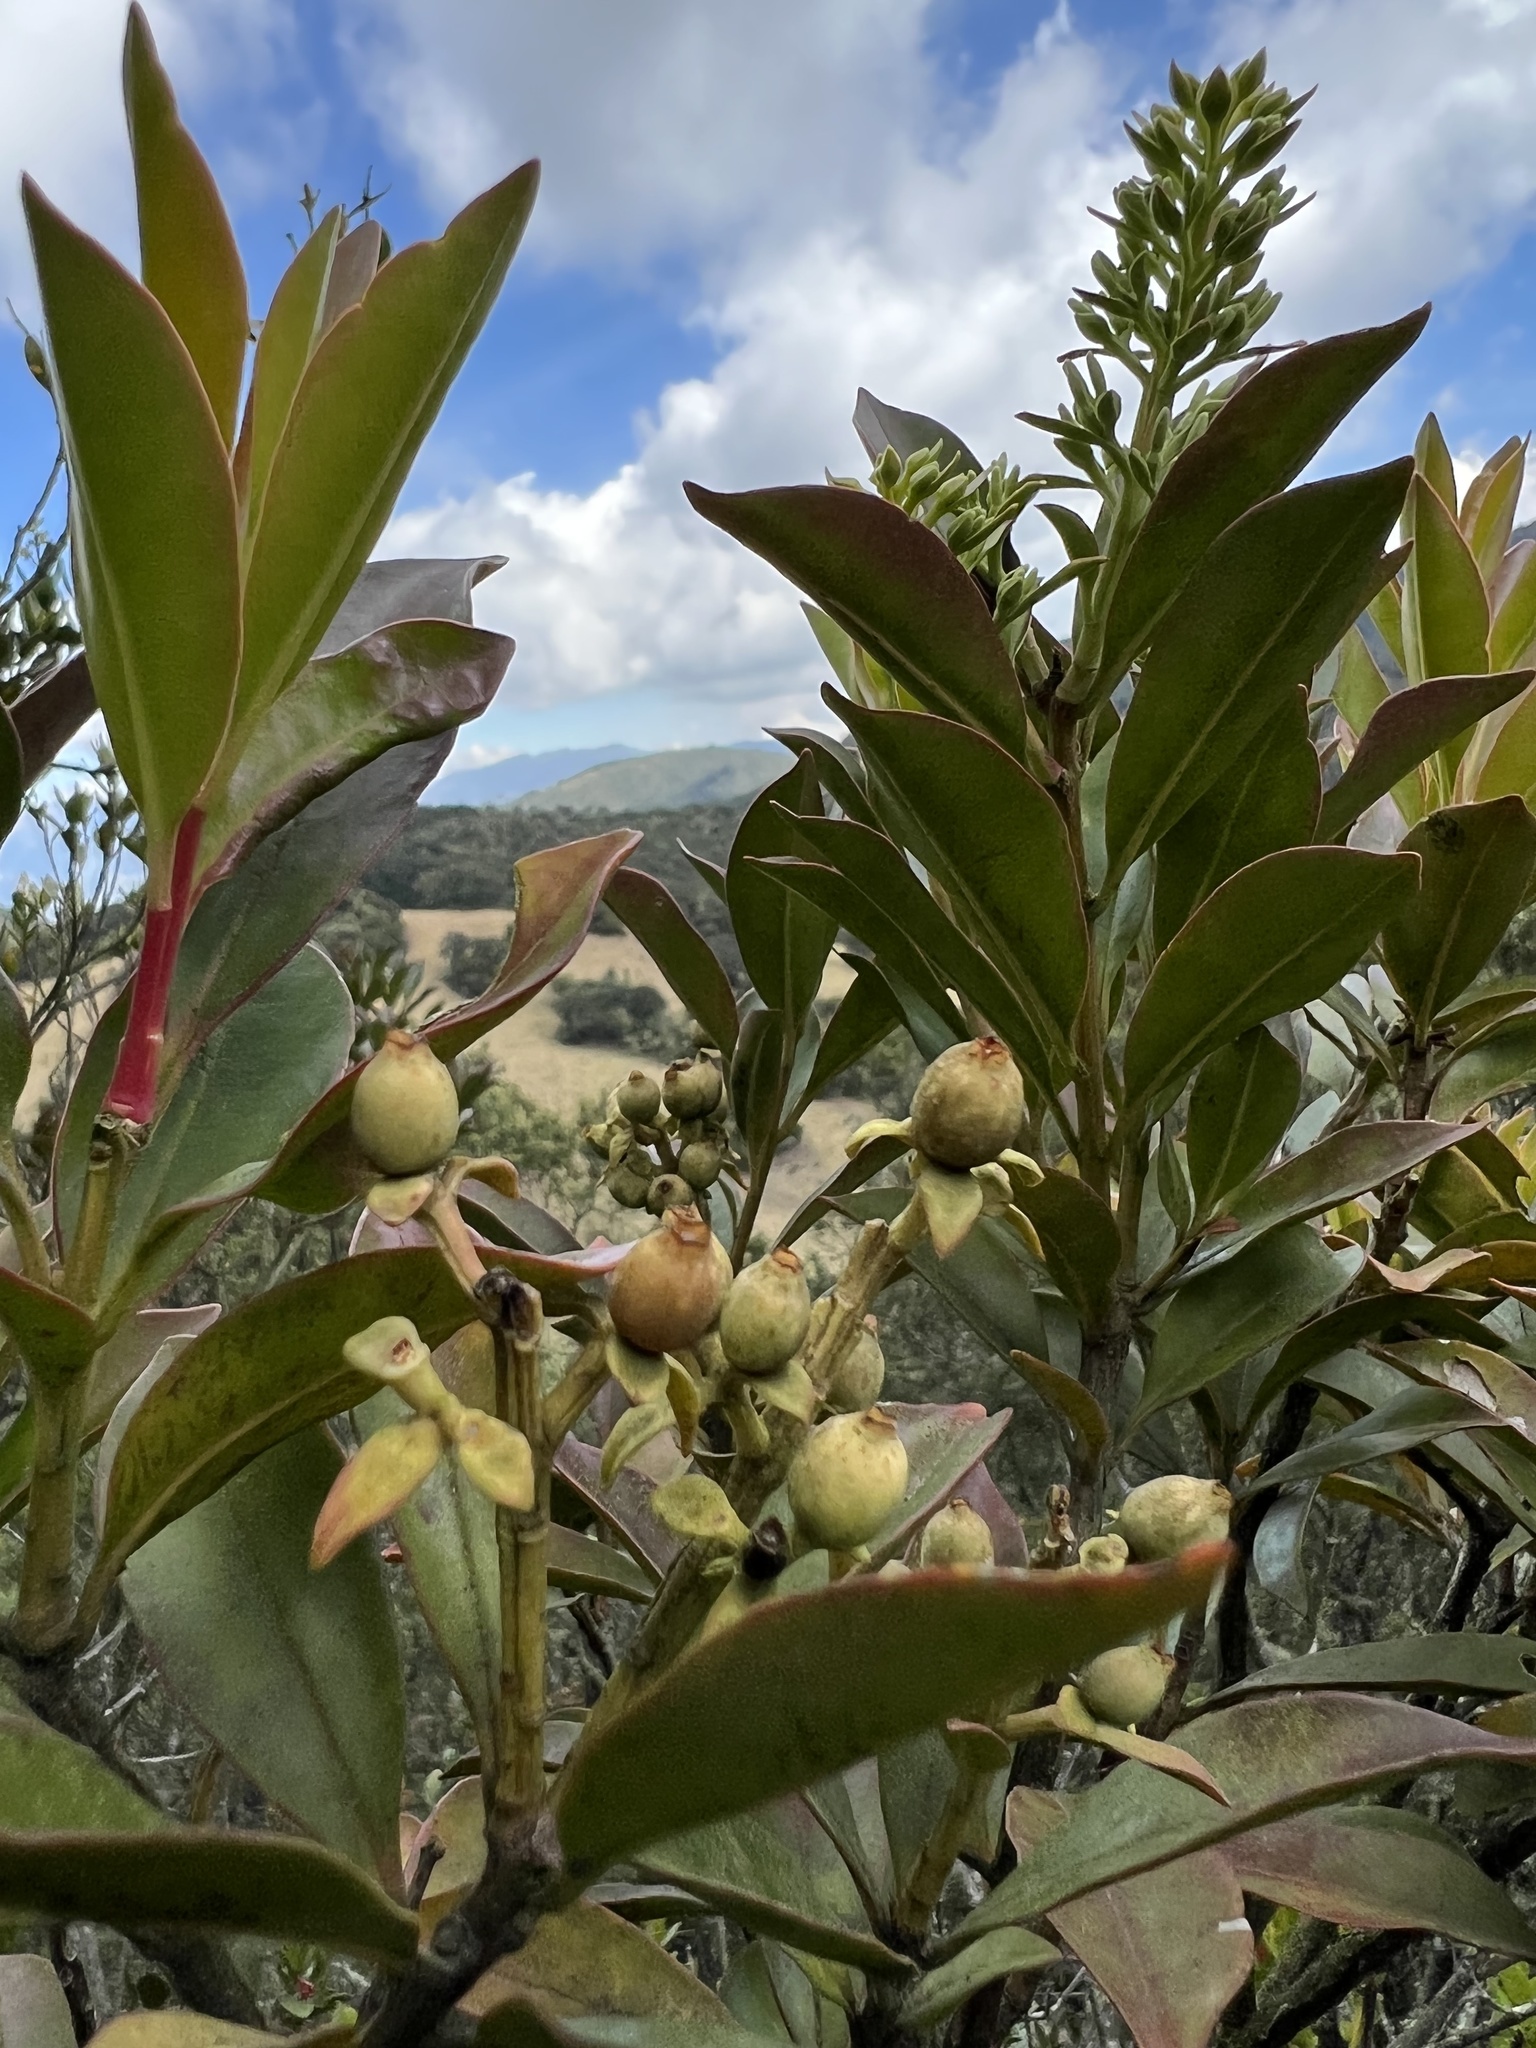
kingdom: Plantae
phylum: Tracheophyta
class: Magnoliopsida
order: Santalales
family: Loranthaceae
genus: Gaiadendron
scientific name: Gaiadendron punctatum
